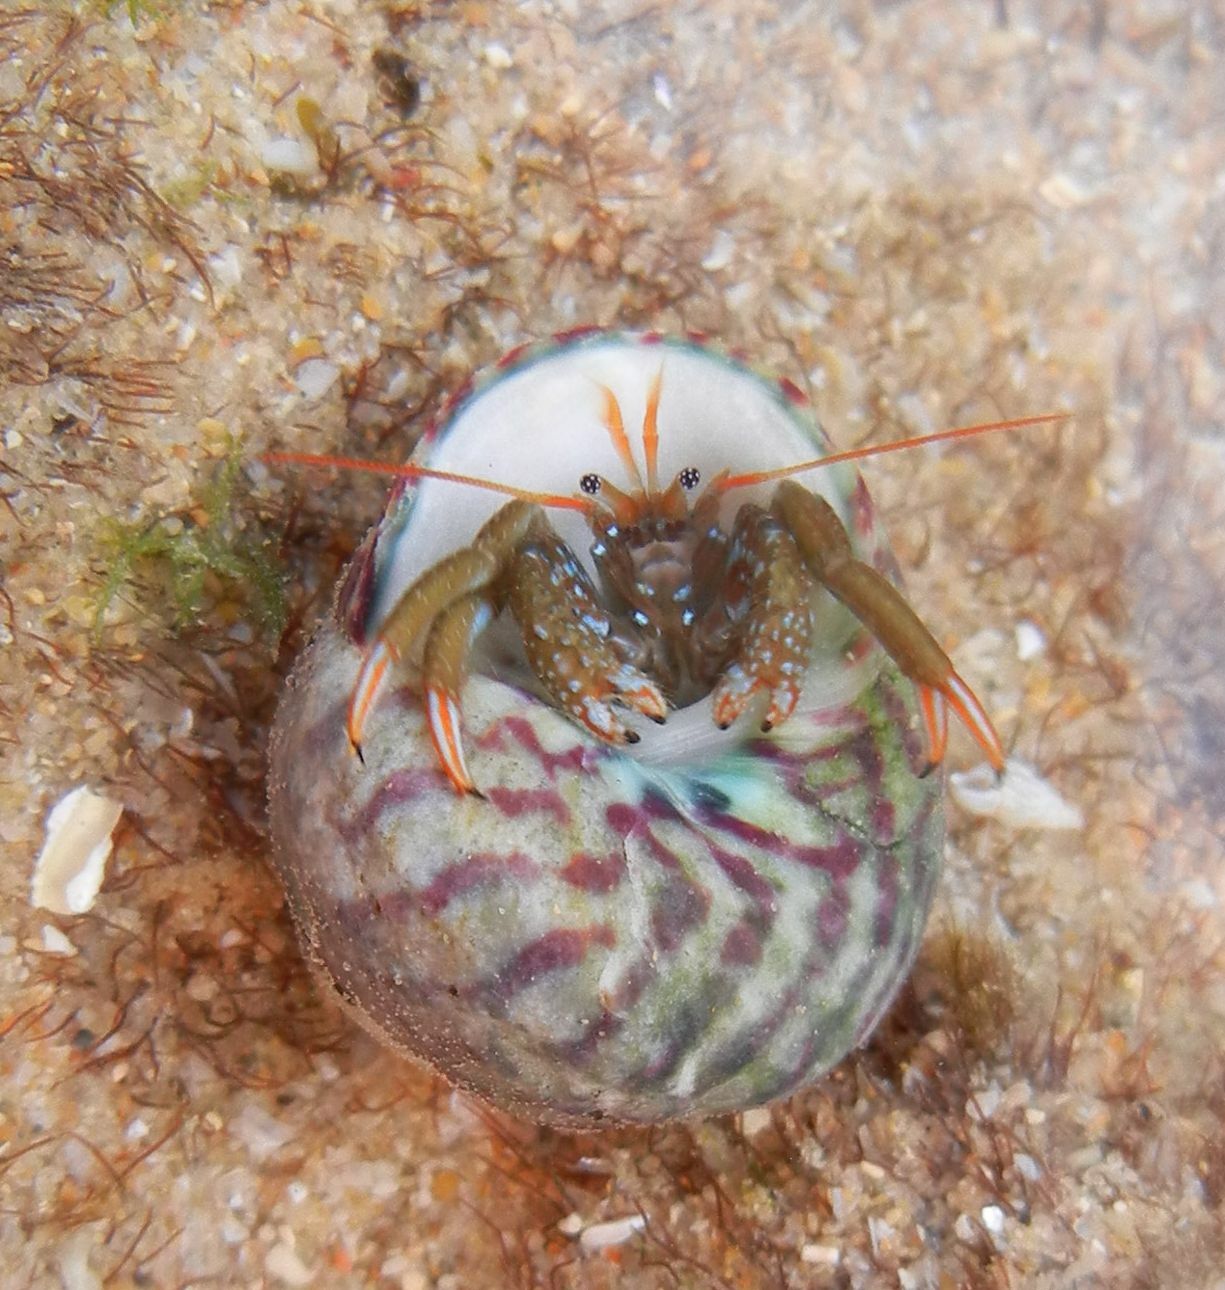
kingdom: Animalia
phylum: Arthropoda
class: Malacostraca
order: Decapoda
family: Diogenidae
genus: Clibanarius
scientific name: Clibanarius erythropus
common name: Hermit crab
